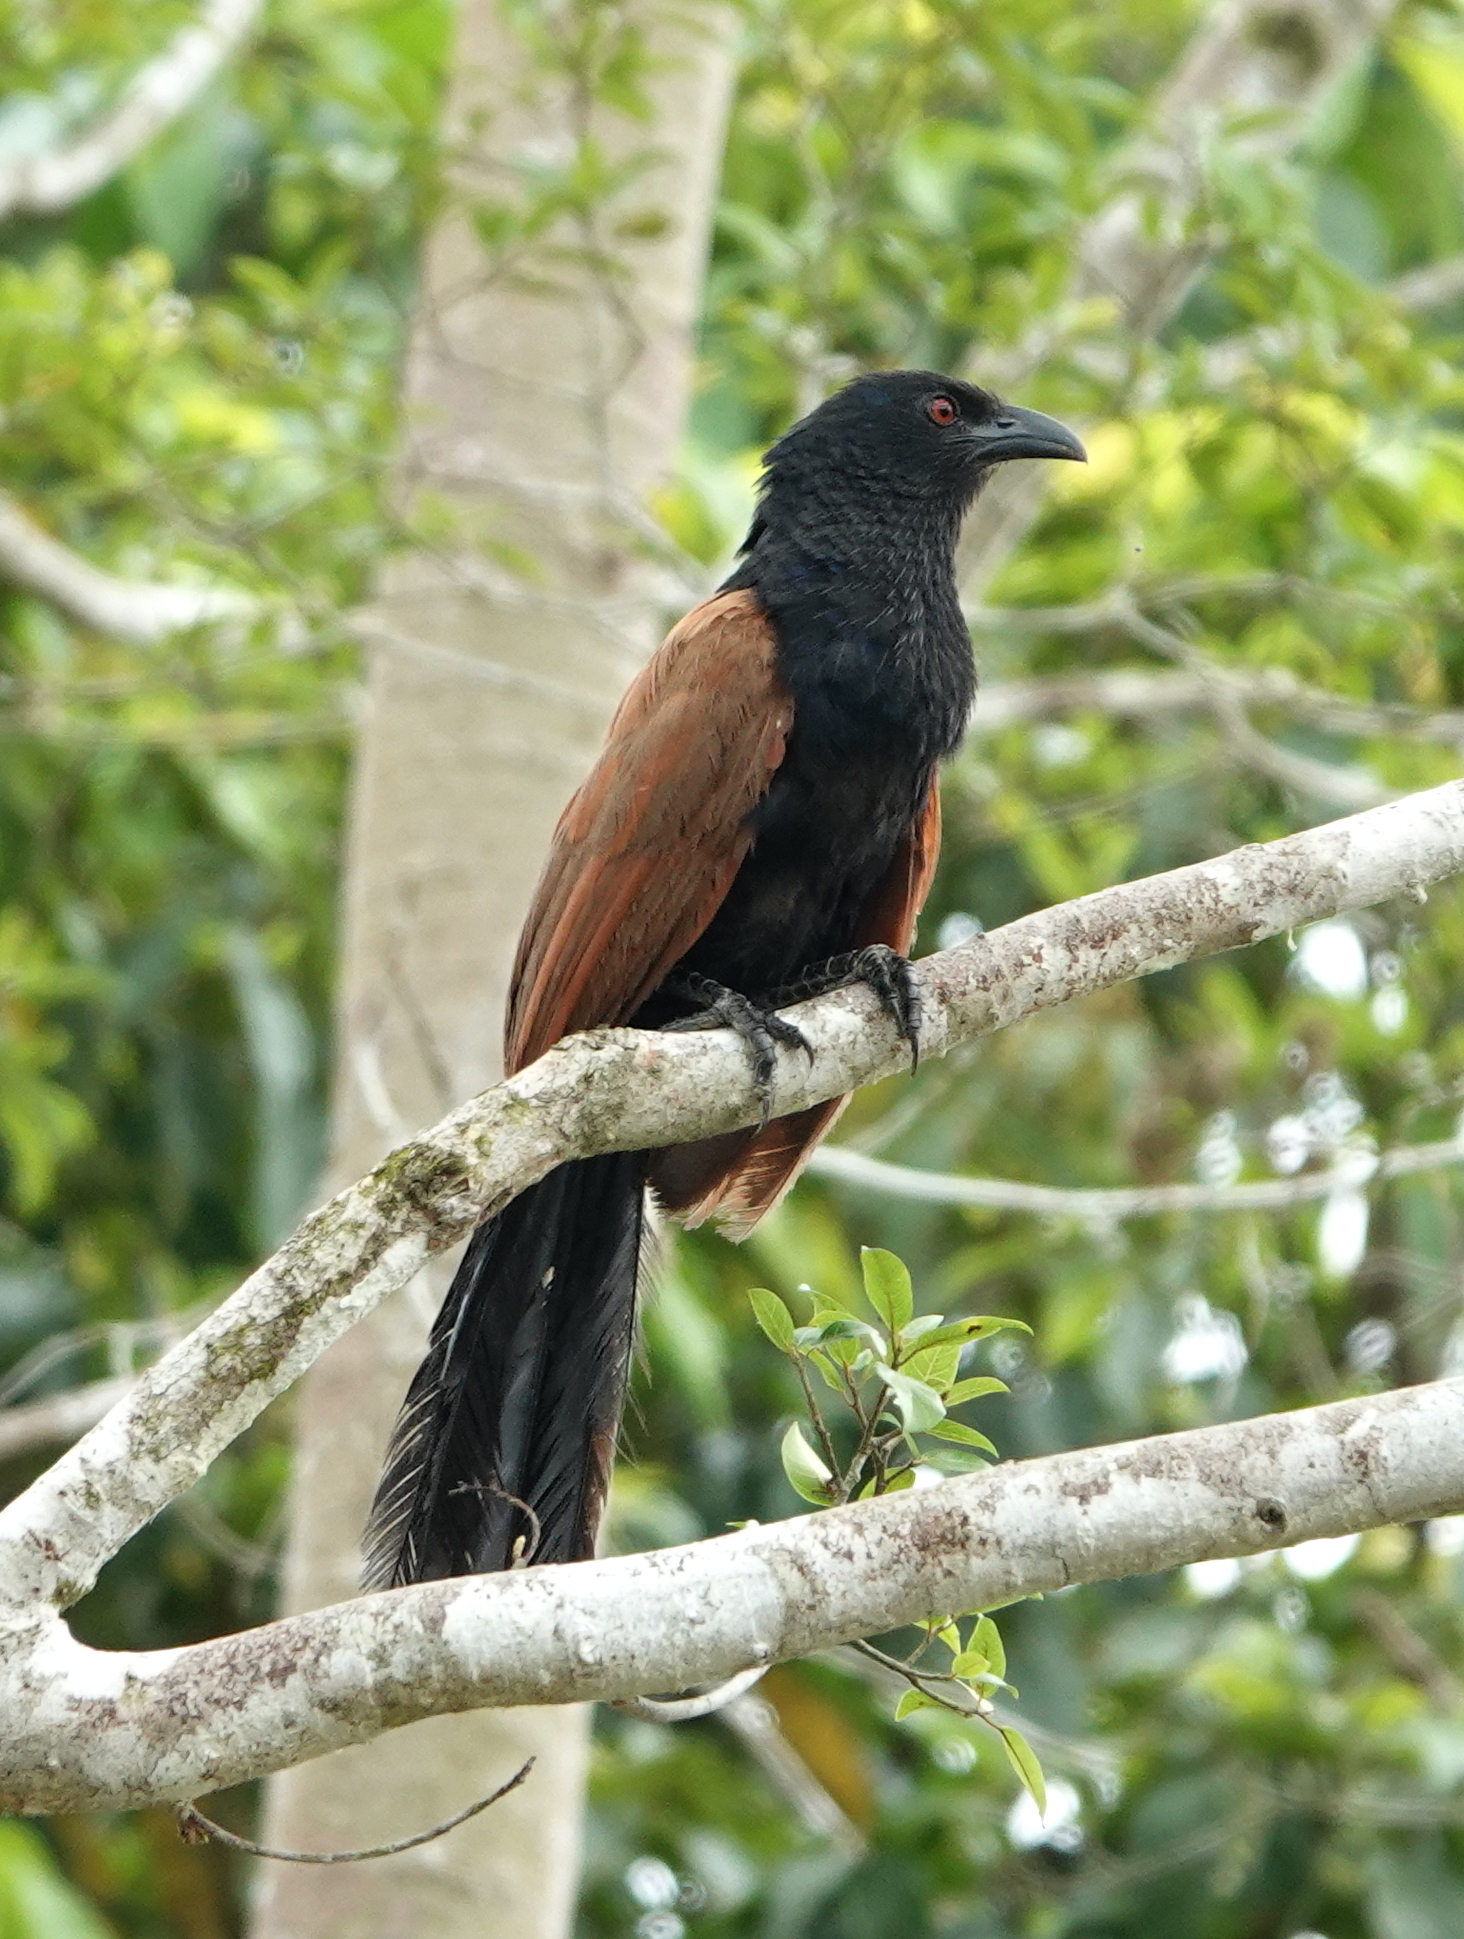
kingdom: Animalia
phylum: Chordata
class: Aves
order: Cuculiformes
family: Cuculidae
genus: Centropus
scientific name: Centropus sinensis
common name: Greater coucal
